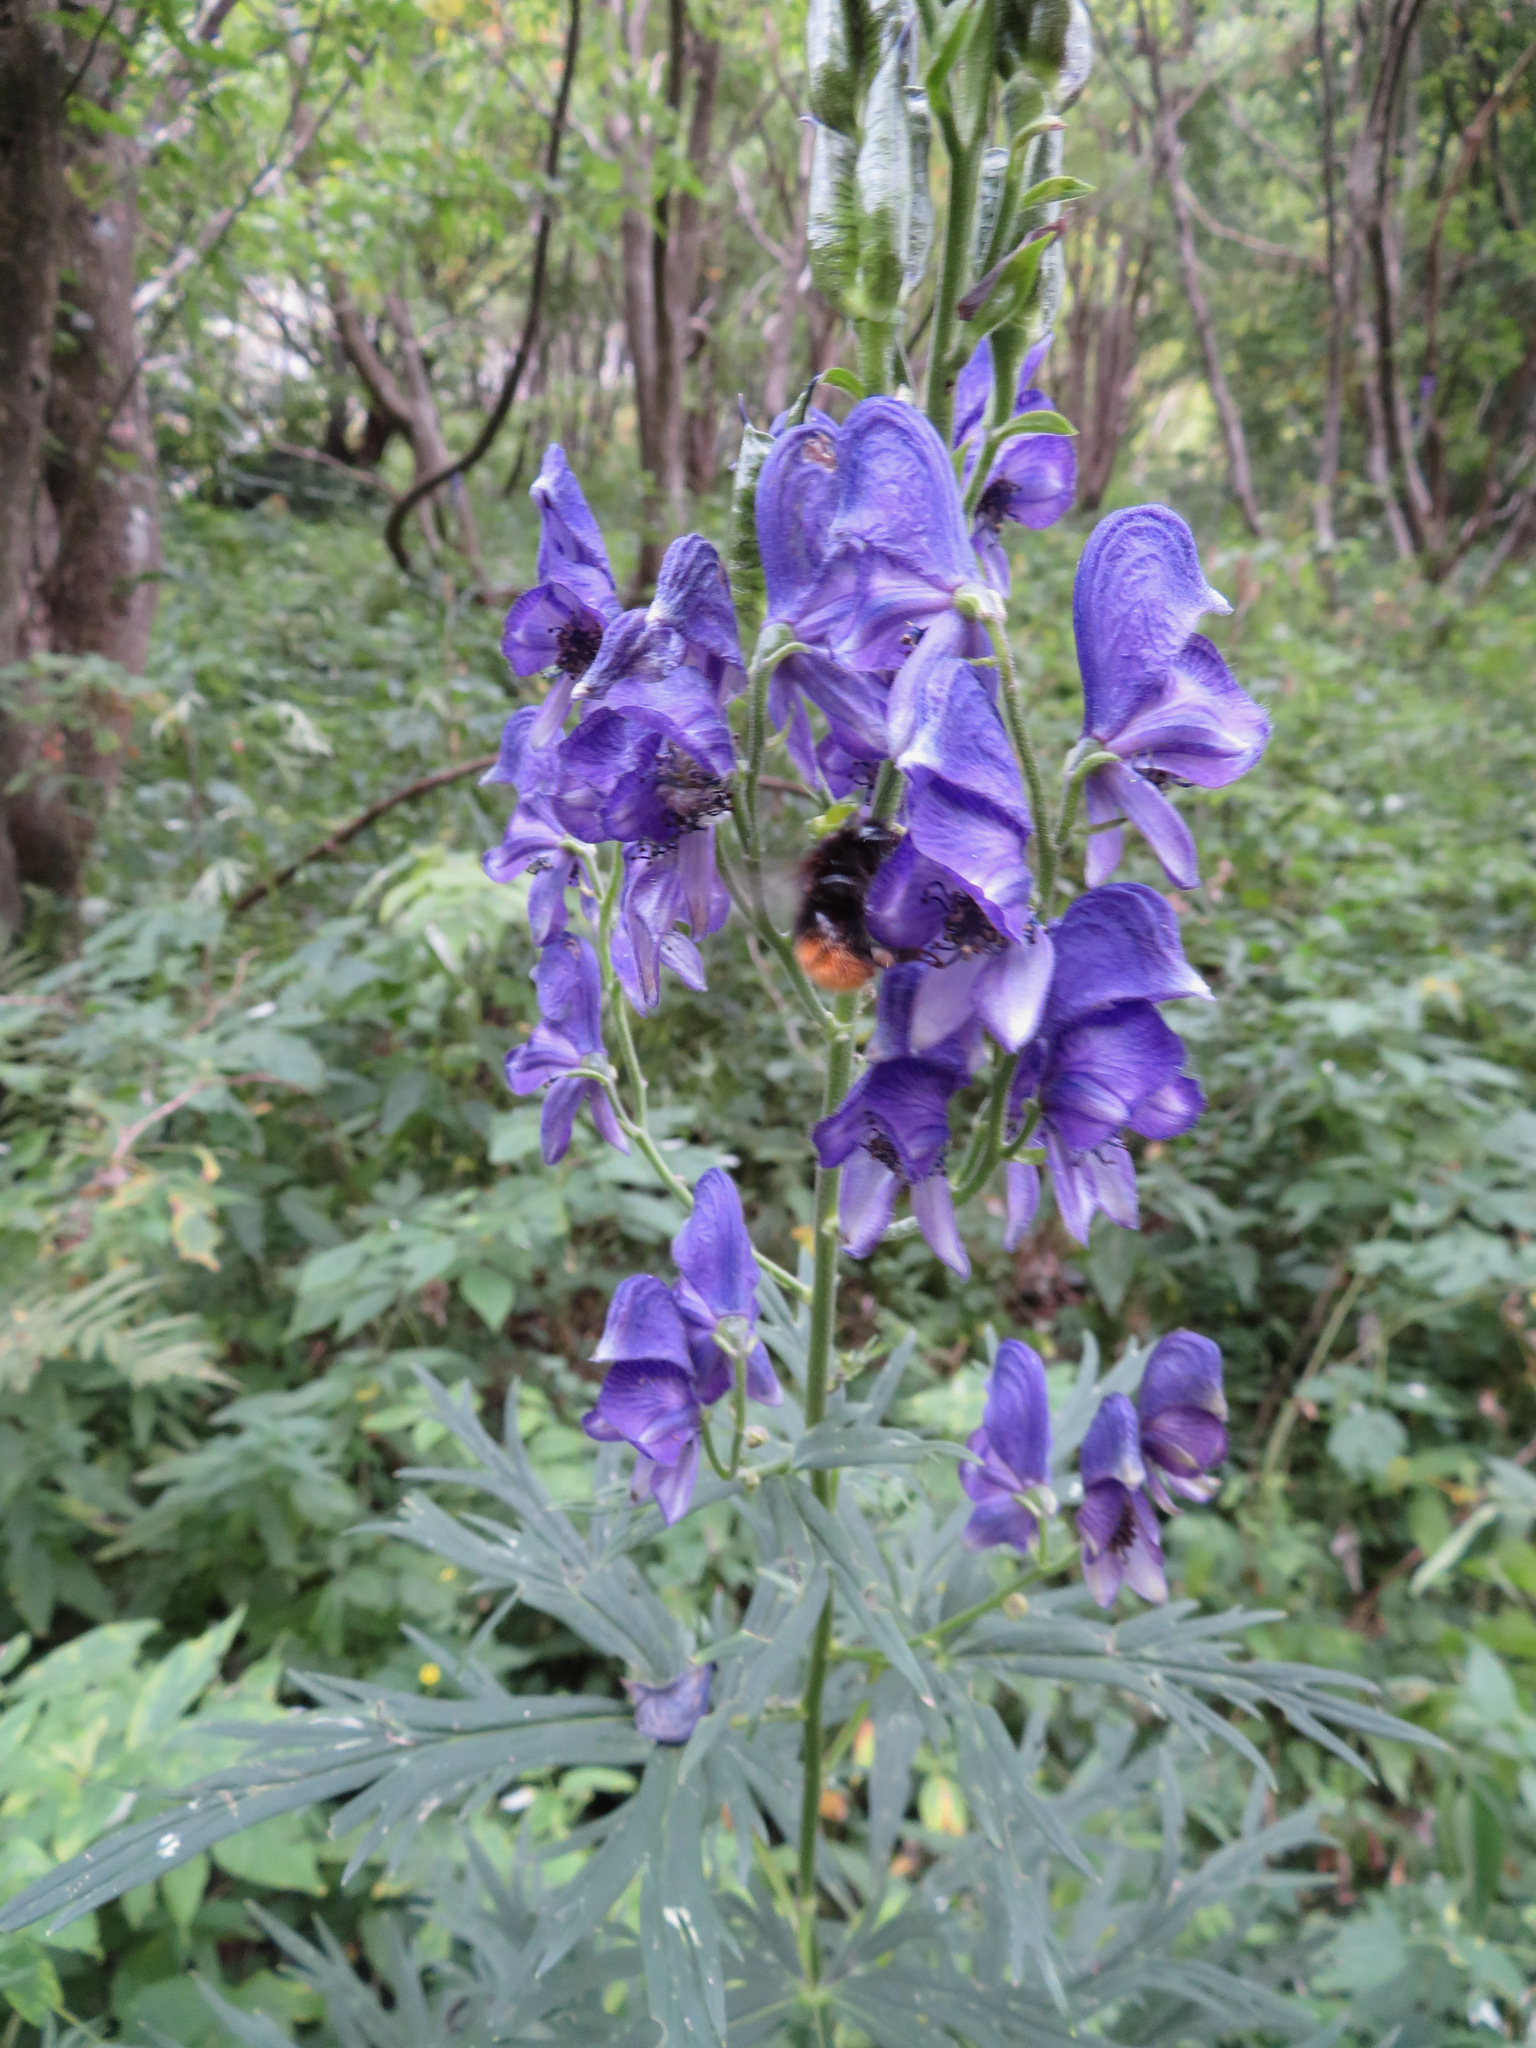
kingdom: Plantae
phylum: Tracheophyta
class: Magnoliopsida
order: Ranunculales
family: Ranunculaceae
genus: Aconitum
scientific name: Aconitum napellus
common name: Garden monkshood
